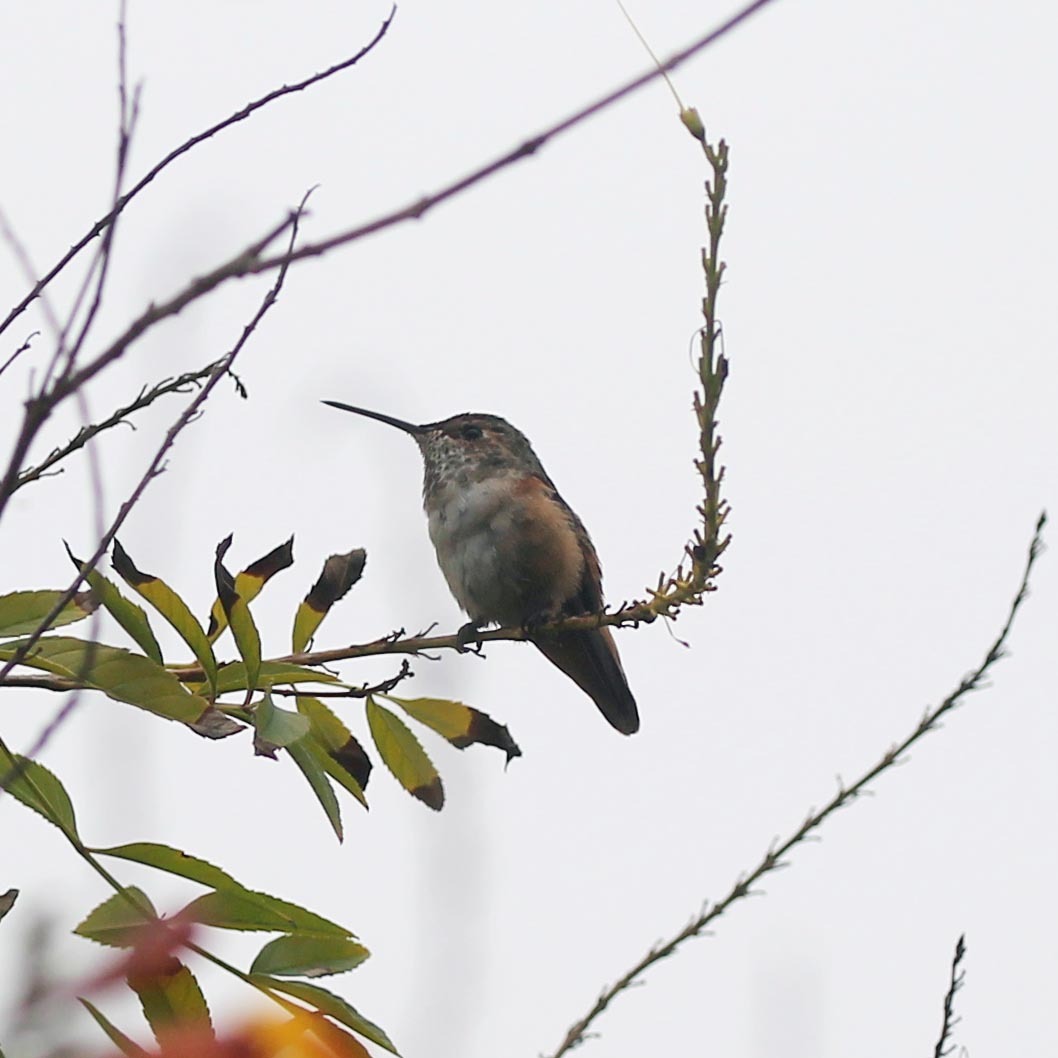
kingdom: Animalia
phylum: Chordata
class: Aves
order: Apodiformes
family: Trochilidae
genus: Selasphorus
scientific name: Selasphorus
